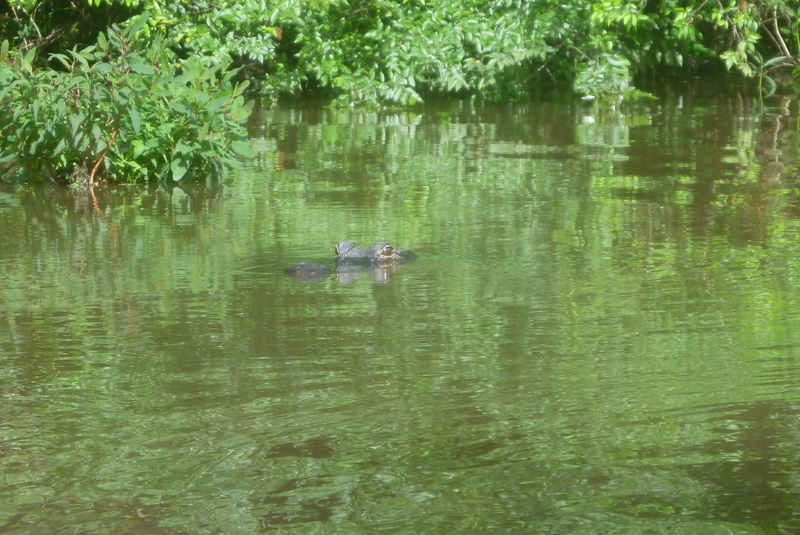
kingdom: Animalia
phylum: Chordata
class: Crocodylia
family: Alligatoridae
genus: Alligator
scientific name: Alligator mississippiensis
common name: American alligator
